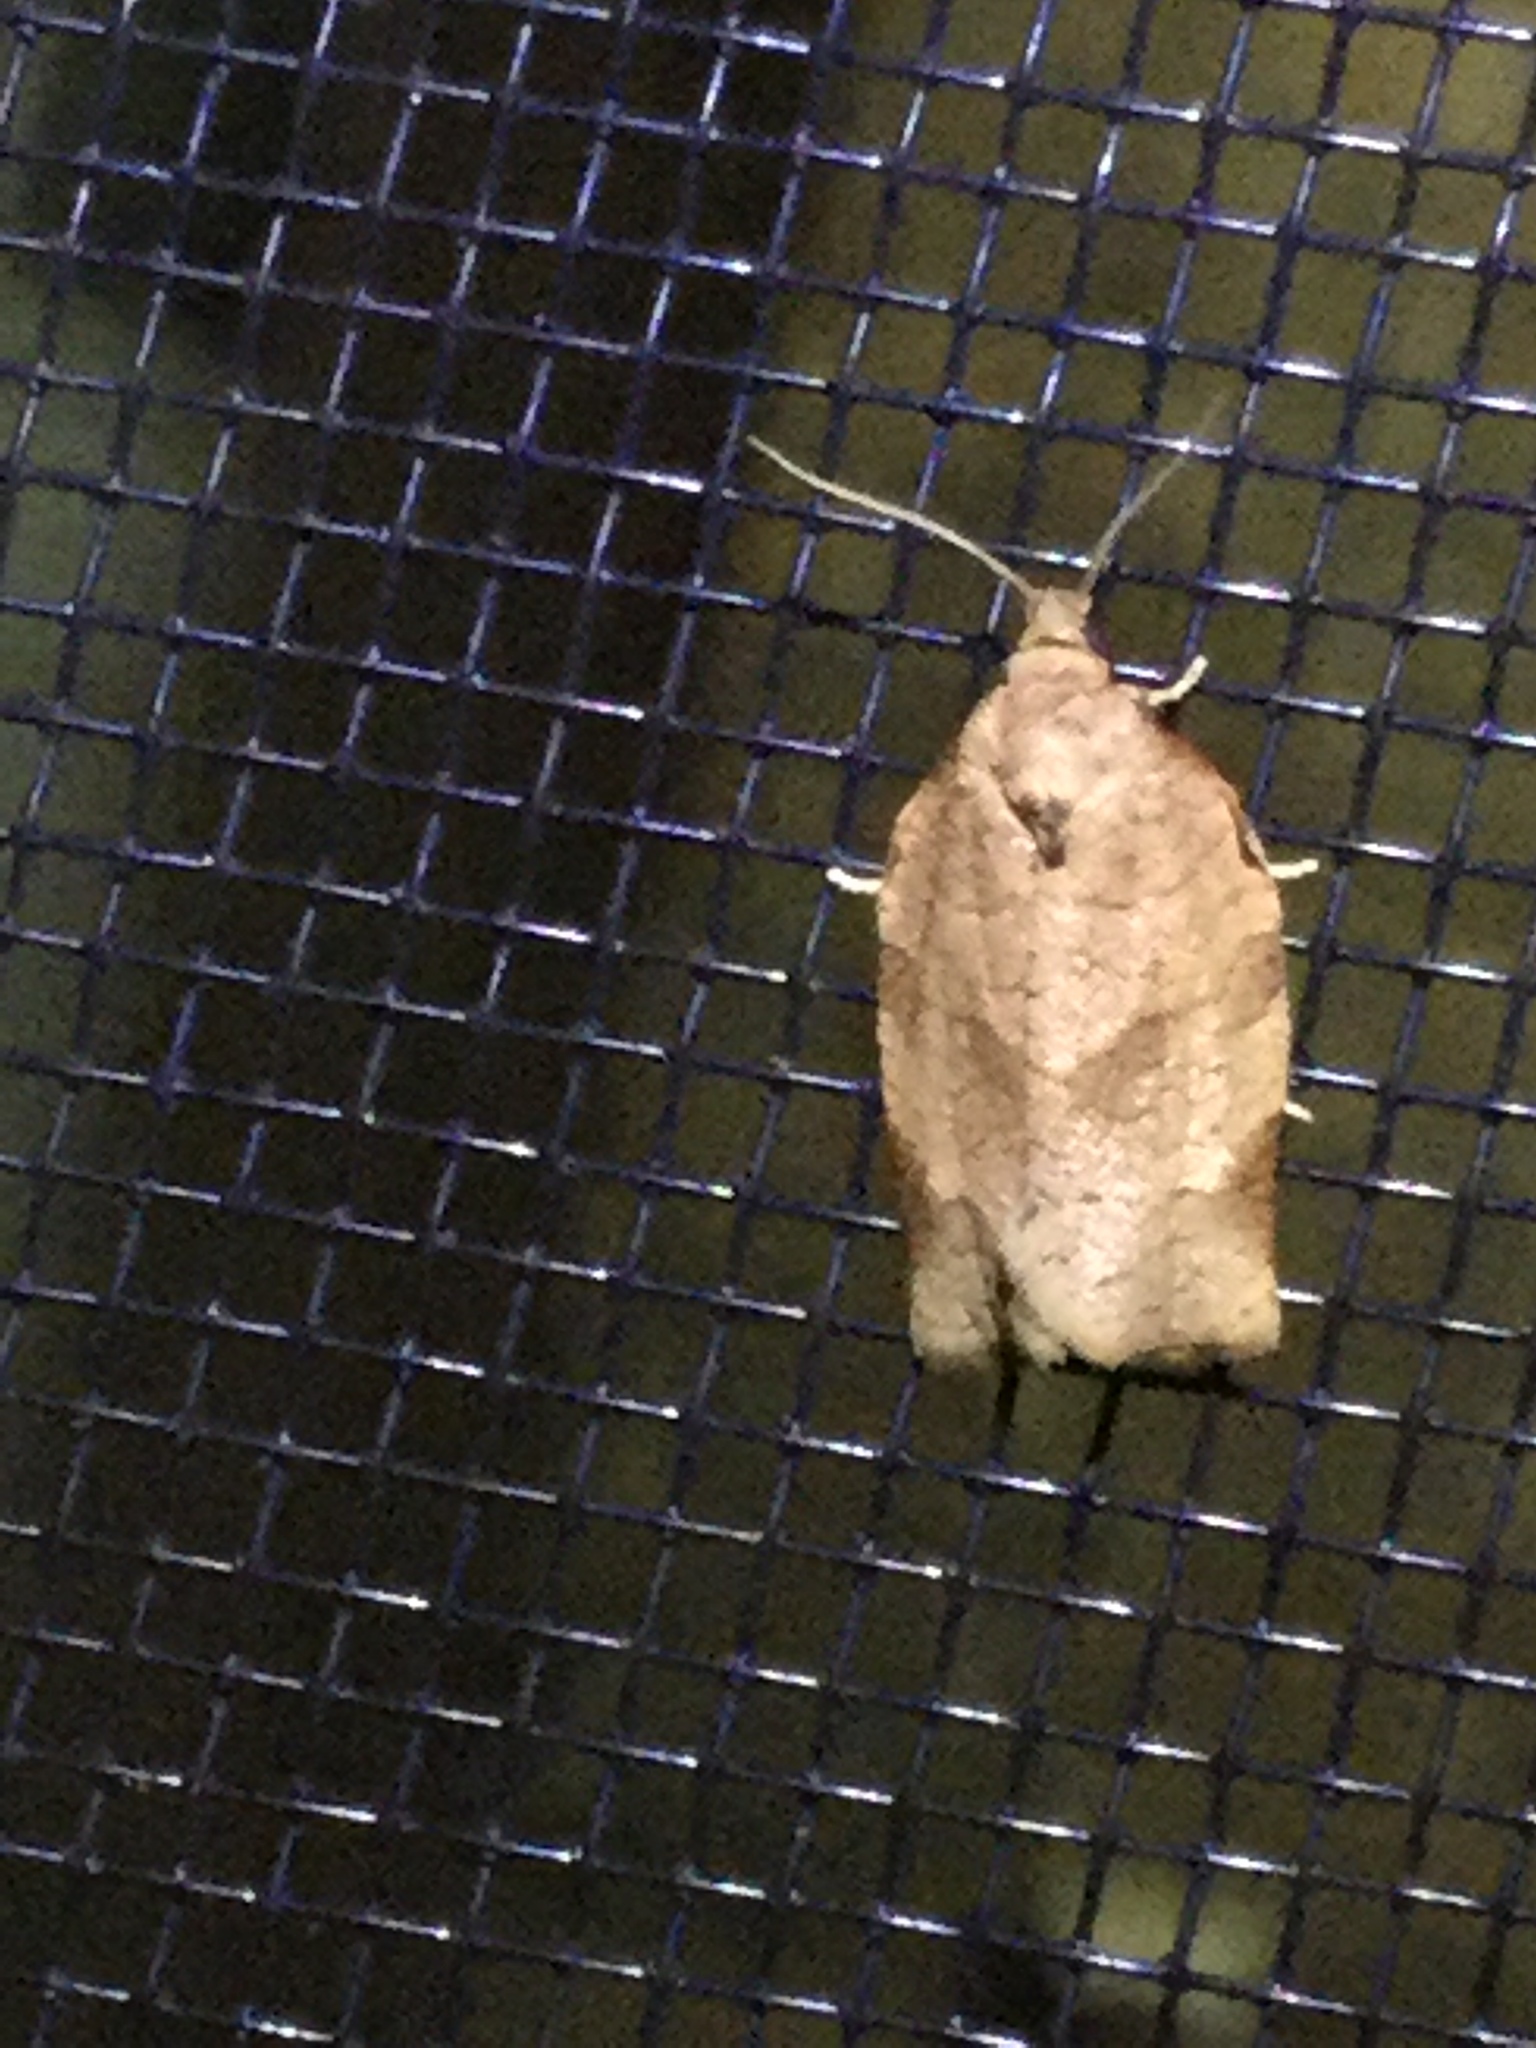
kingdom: Animalia
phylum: Arthropoda
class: Insecta
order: Lepidoptera
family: Tortricidae
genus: Choristoneura
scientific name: Choristoneura rosaceana
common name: Oblique-banded leafroller moth
